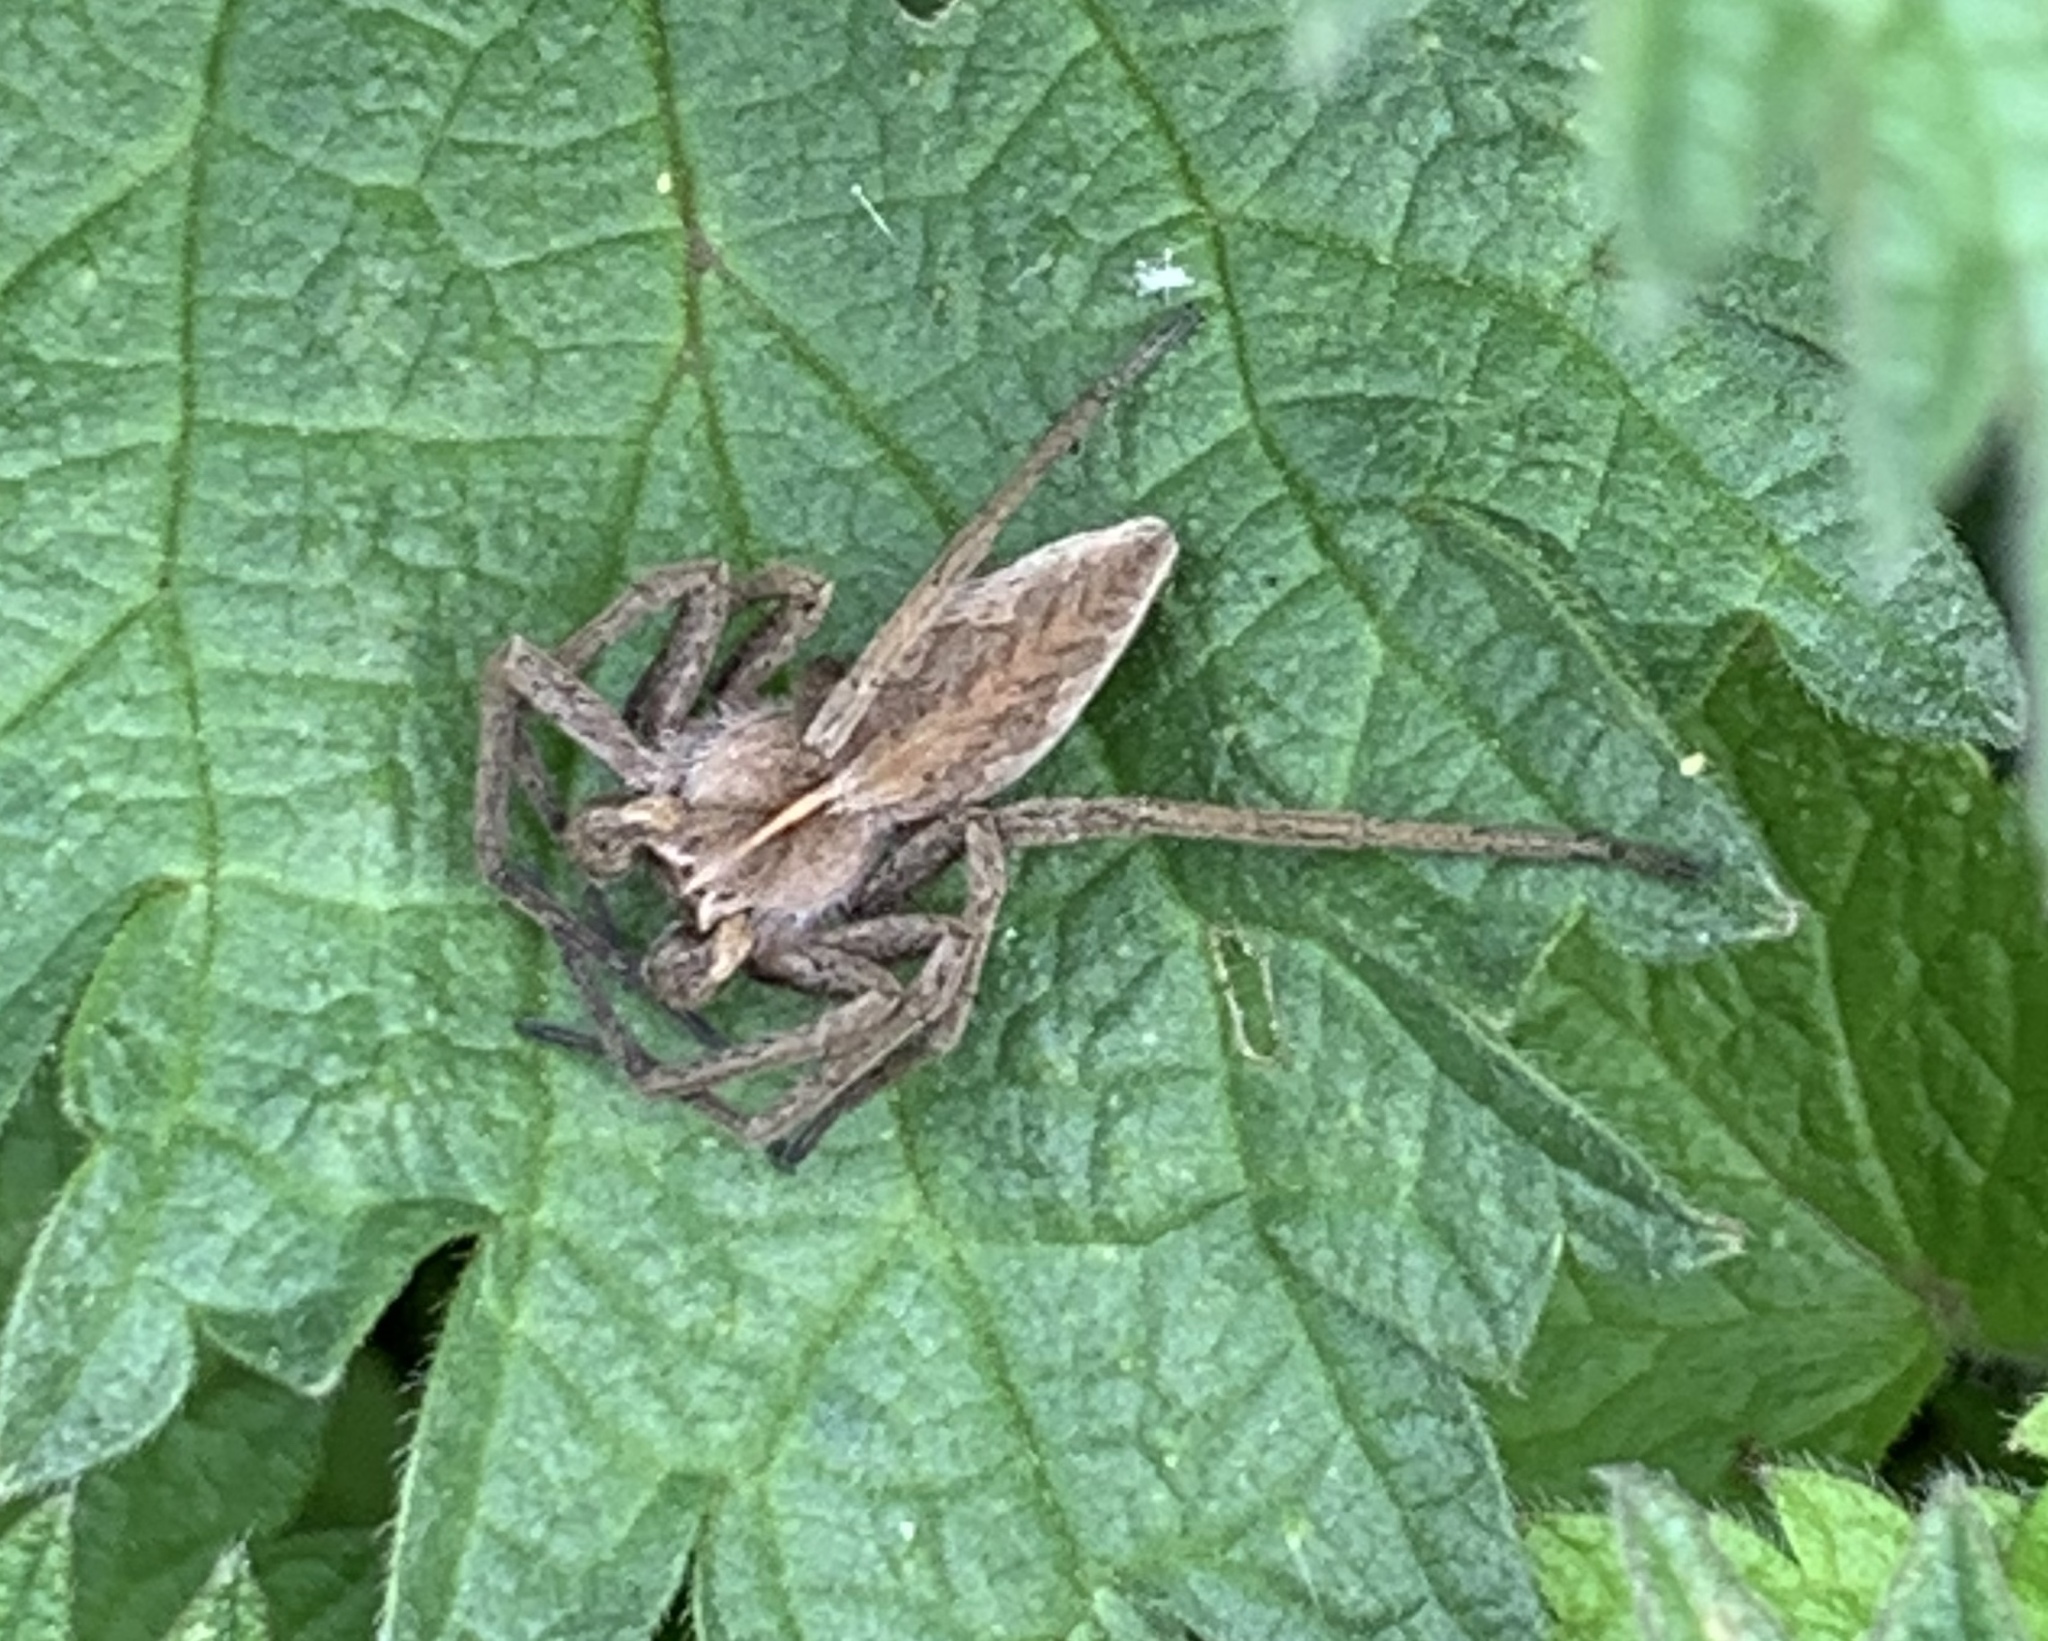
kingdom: Animalia
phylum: Arthropoda
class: Arachnida
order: Araneae
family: Pisauridae
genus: Pisaura
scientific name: Pisaura mirabilis
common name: Tent spider
